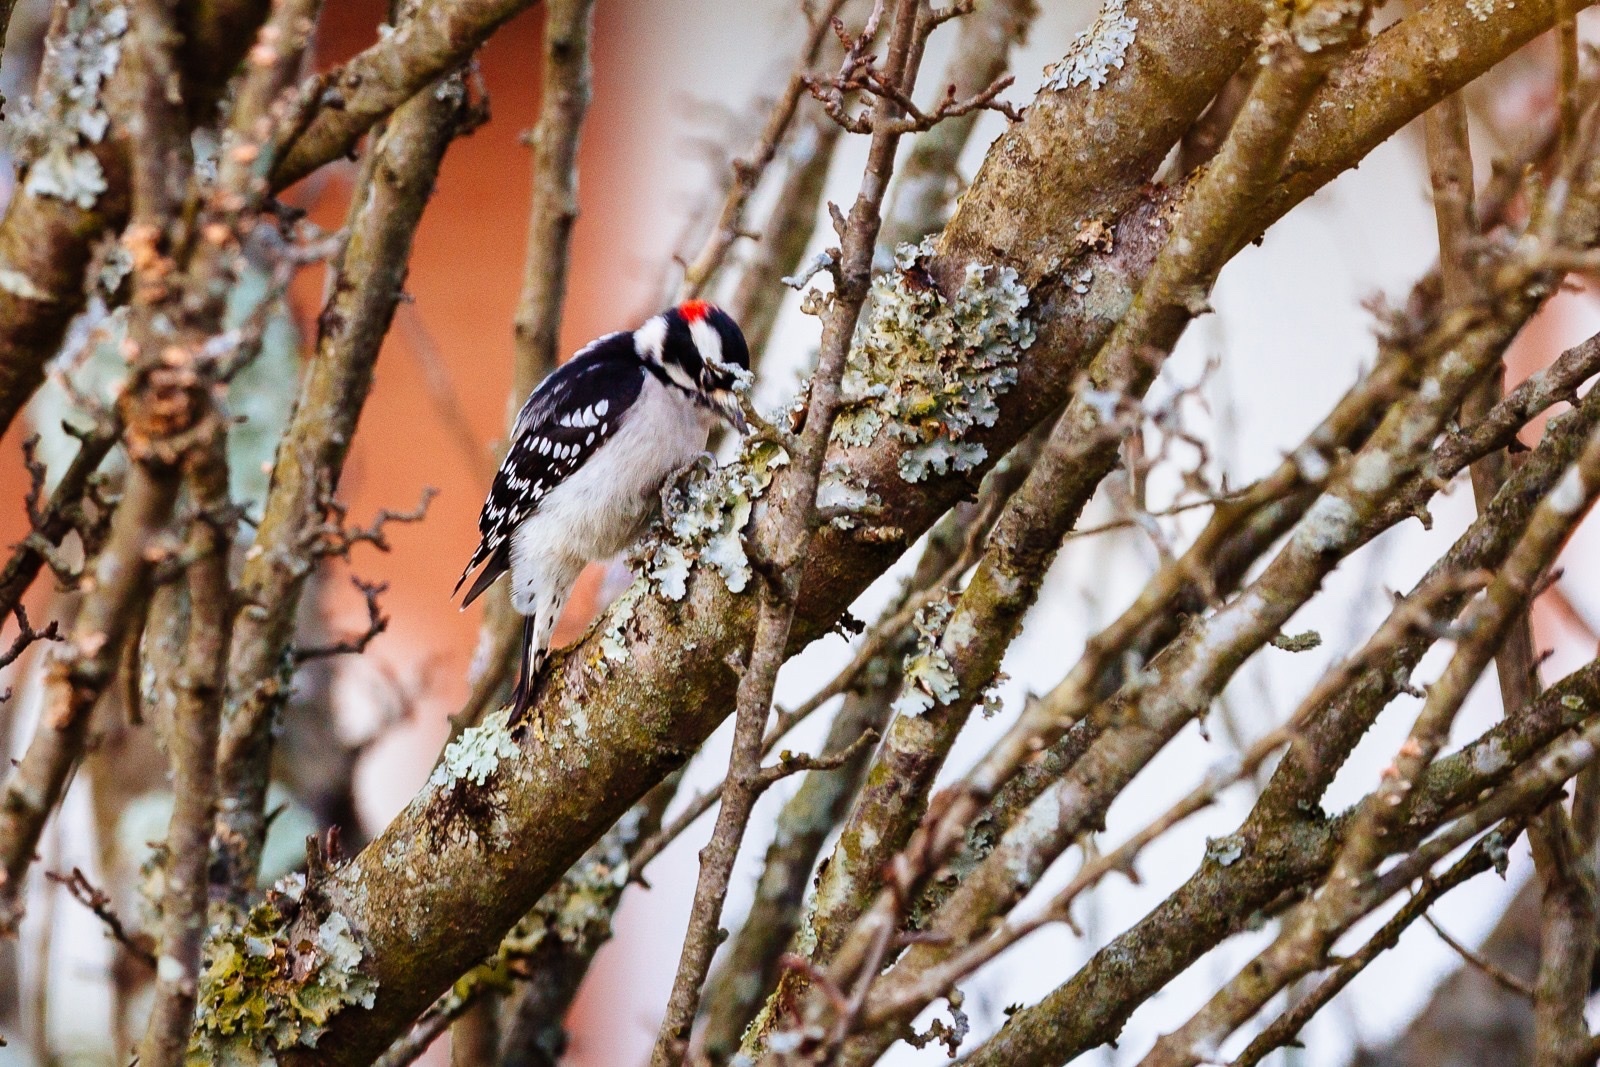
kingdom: Animalia
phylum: Chordata
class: Aves
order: Piciformes
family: Picidae
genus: Dryobates
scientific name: Dryobates pubescens
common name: Downy woodpecker
